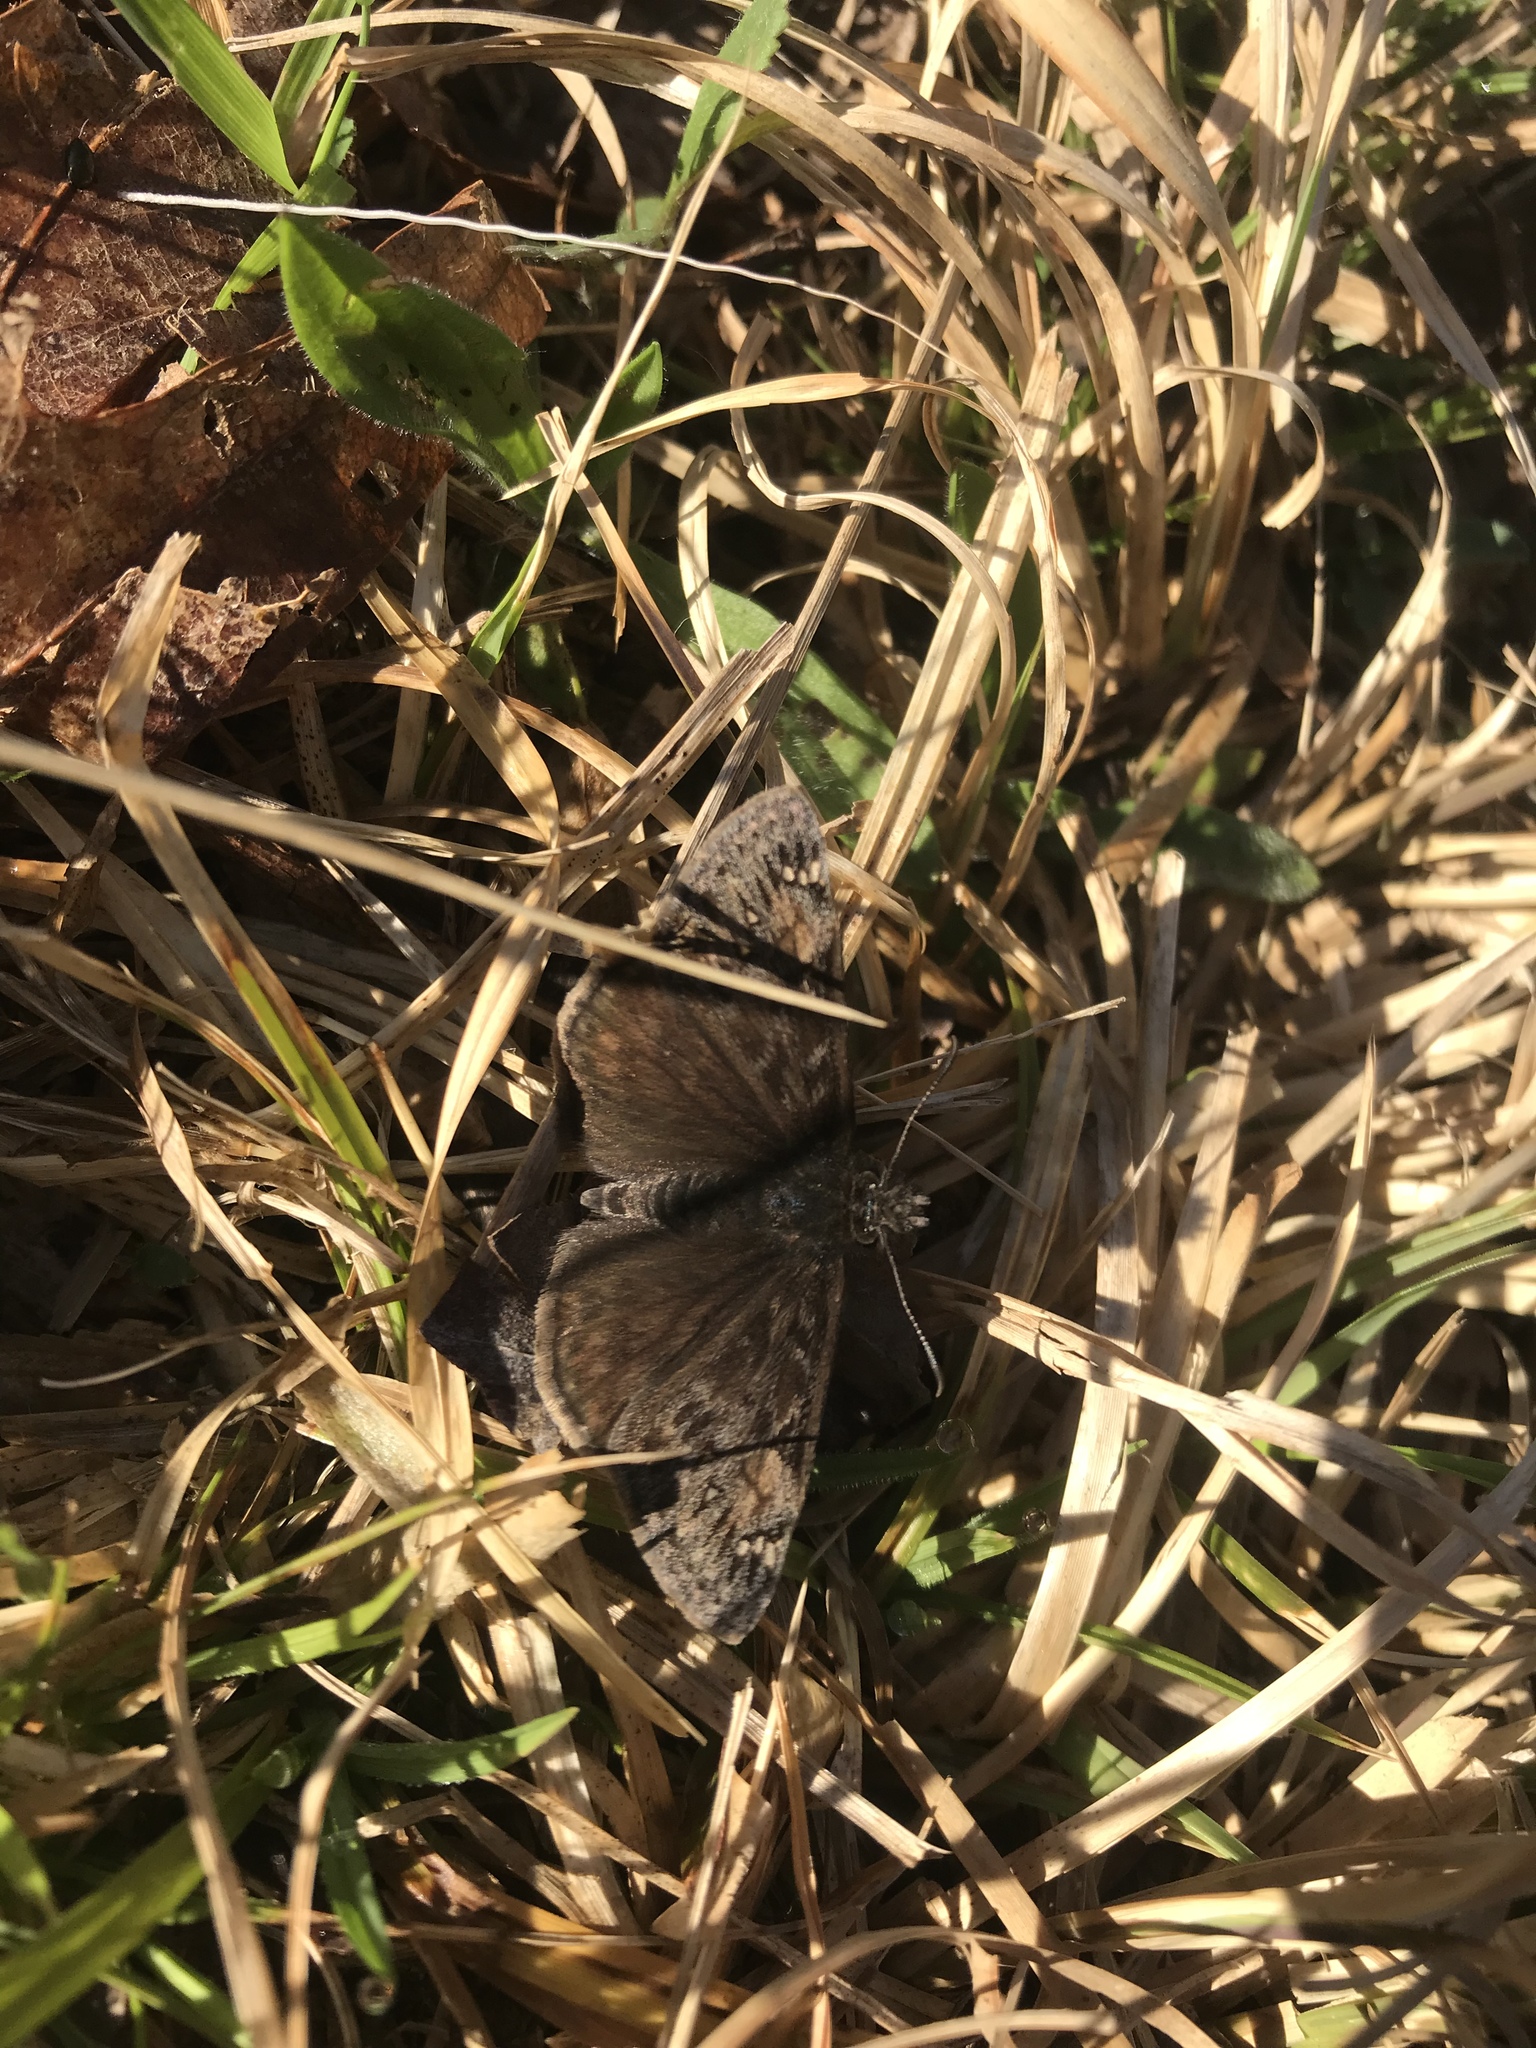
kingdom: Animalia
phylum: Arthropoda
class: Insecta
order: Lepidoptera
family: Hesperiidae
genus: Erynnis
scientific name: Erynnis juvenalis
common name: Juvenal's duskywing
